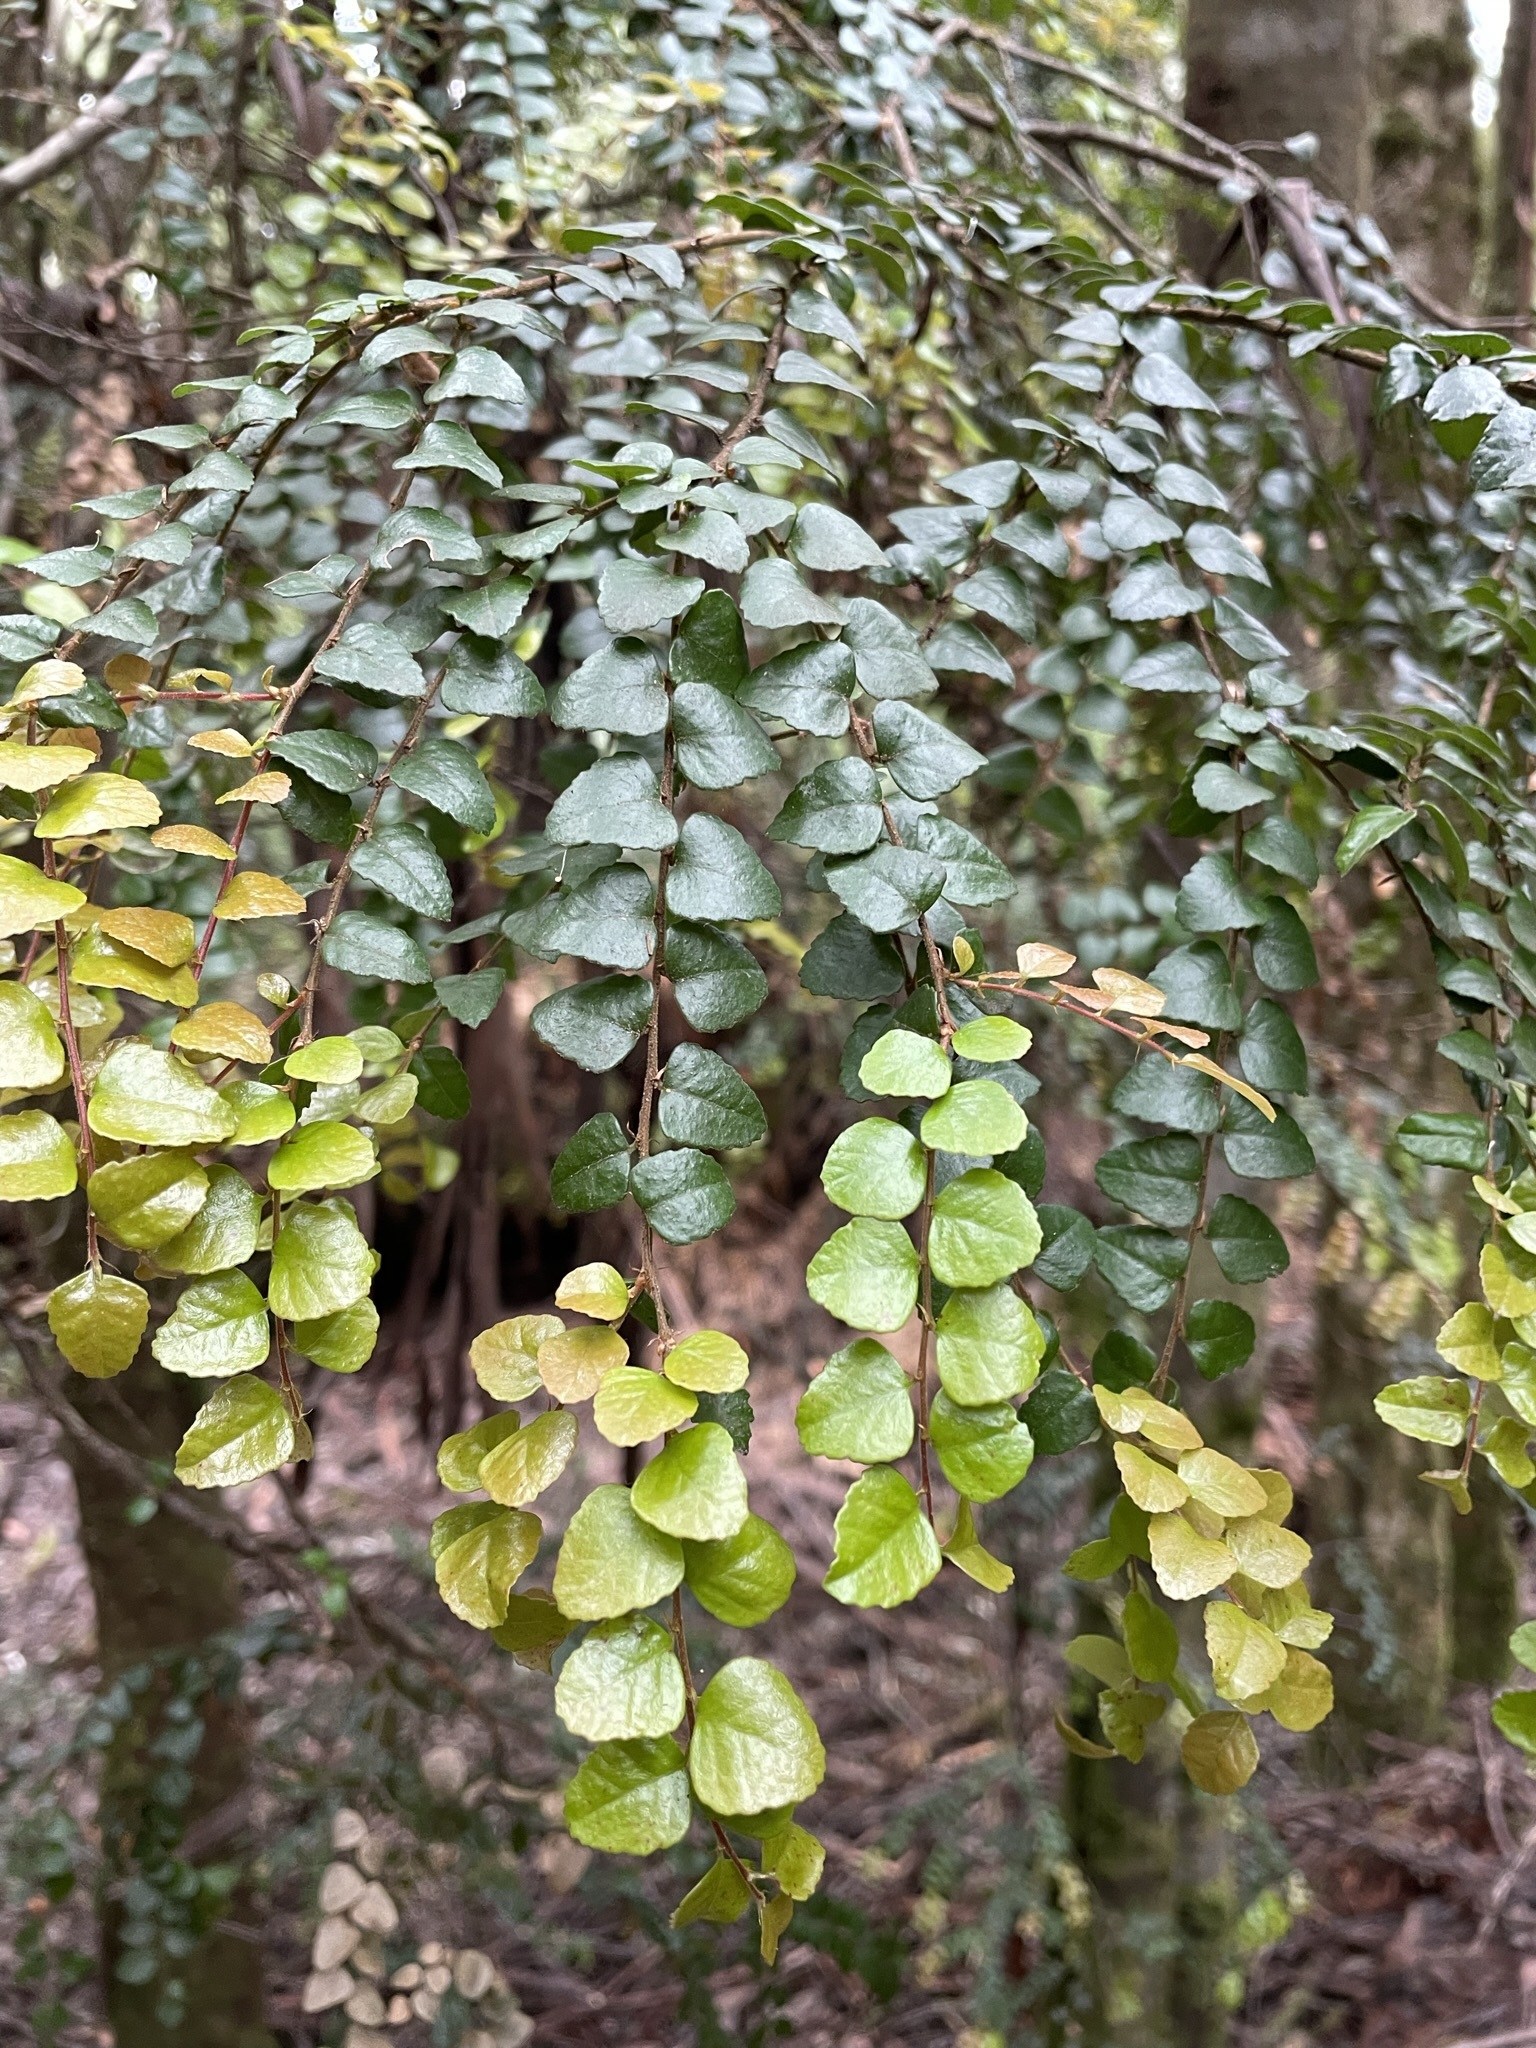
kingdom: Plantae
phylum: Tracheophyta
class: Magnoliopsida
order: Fagales
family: Nothofagaceae
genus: Nothofagus
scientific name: Nothofagus cunninghamii
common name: Myrtle beech
